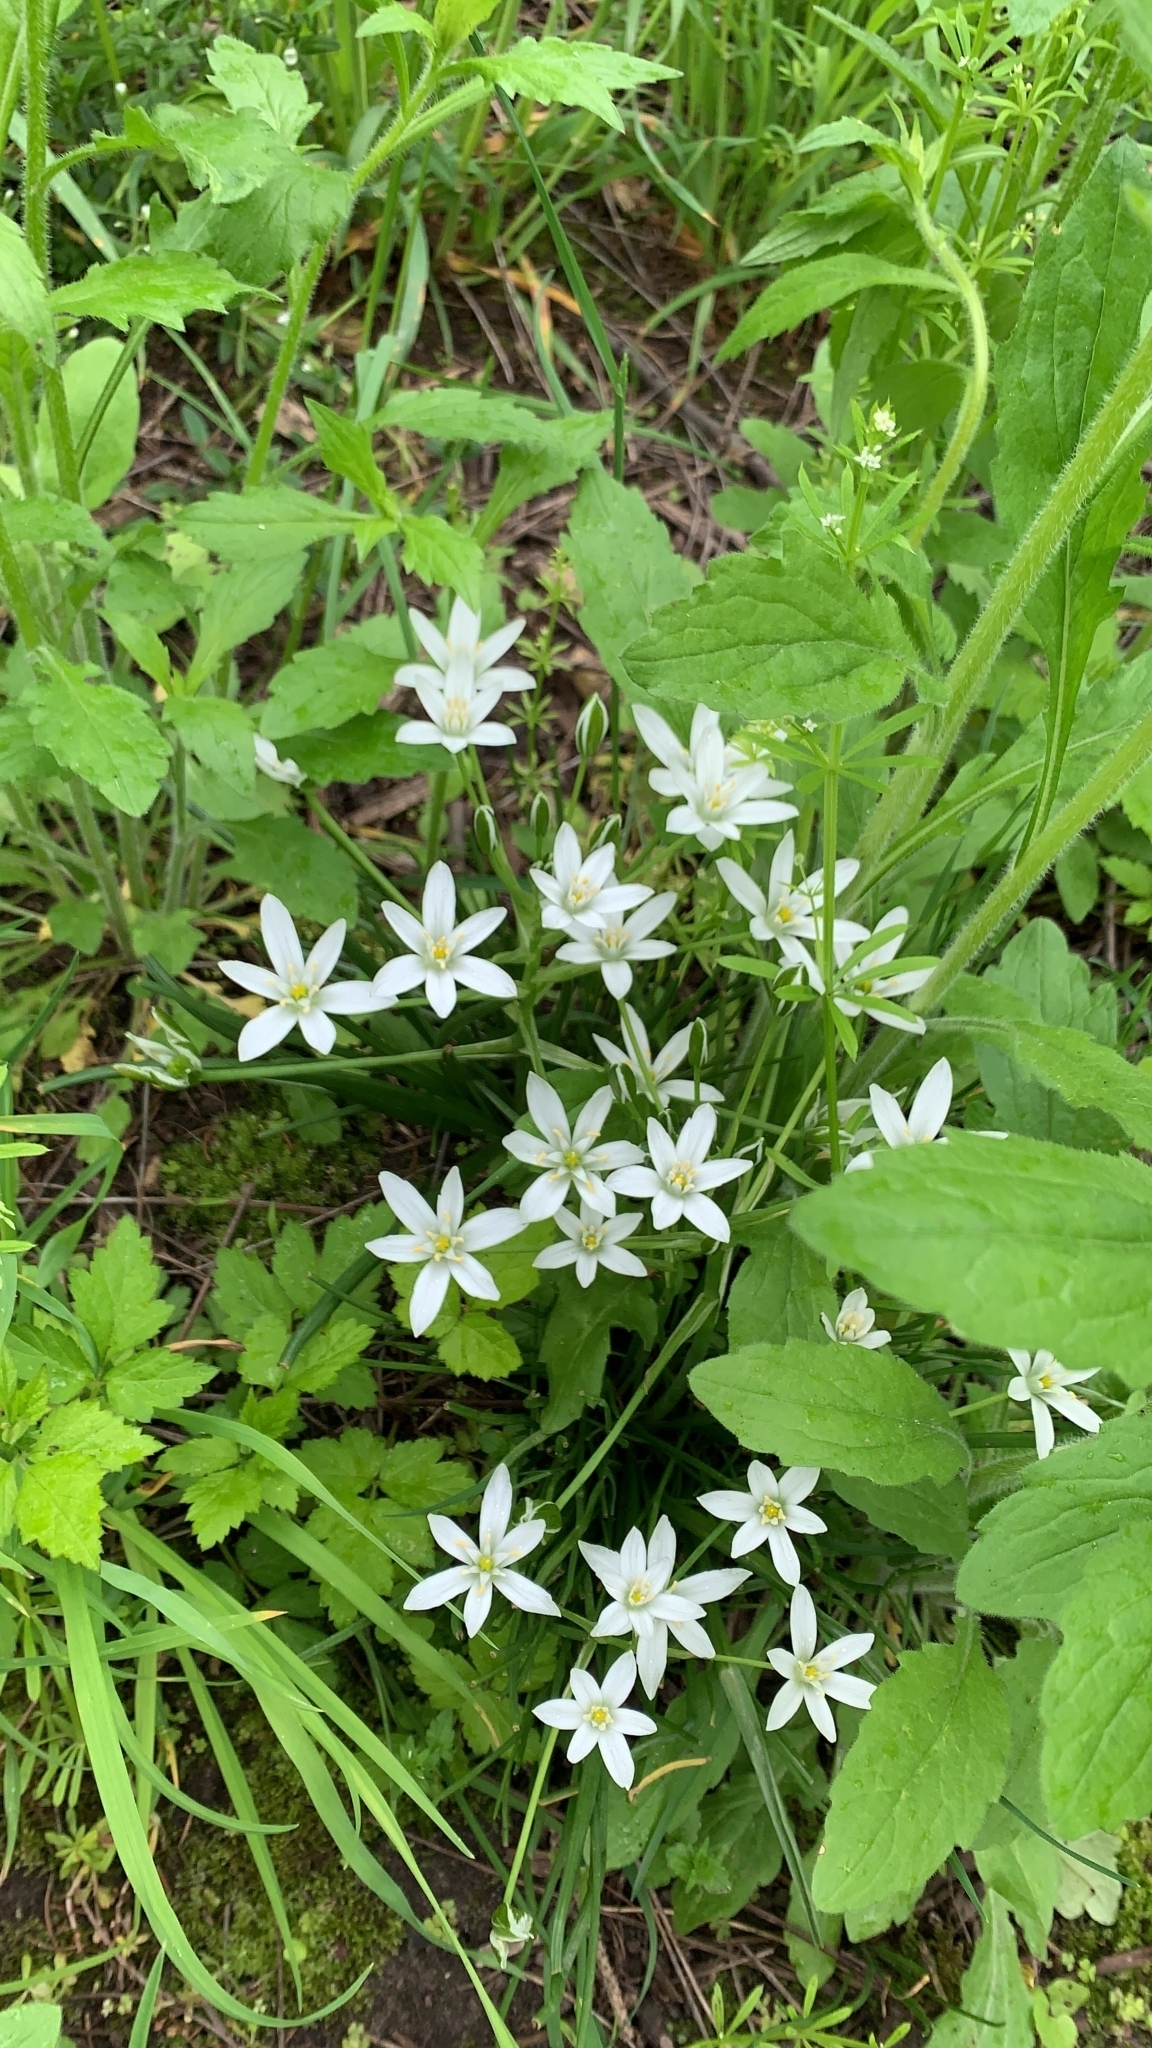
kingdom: Plantae
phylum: Tracheophyta
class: Liliopsida
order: Asparagales
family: Asparagaceae
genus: Ornithogalum
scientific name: Ornithogalum umbellatum
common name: Garden star-of-bethlehem
